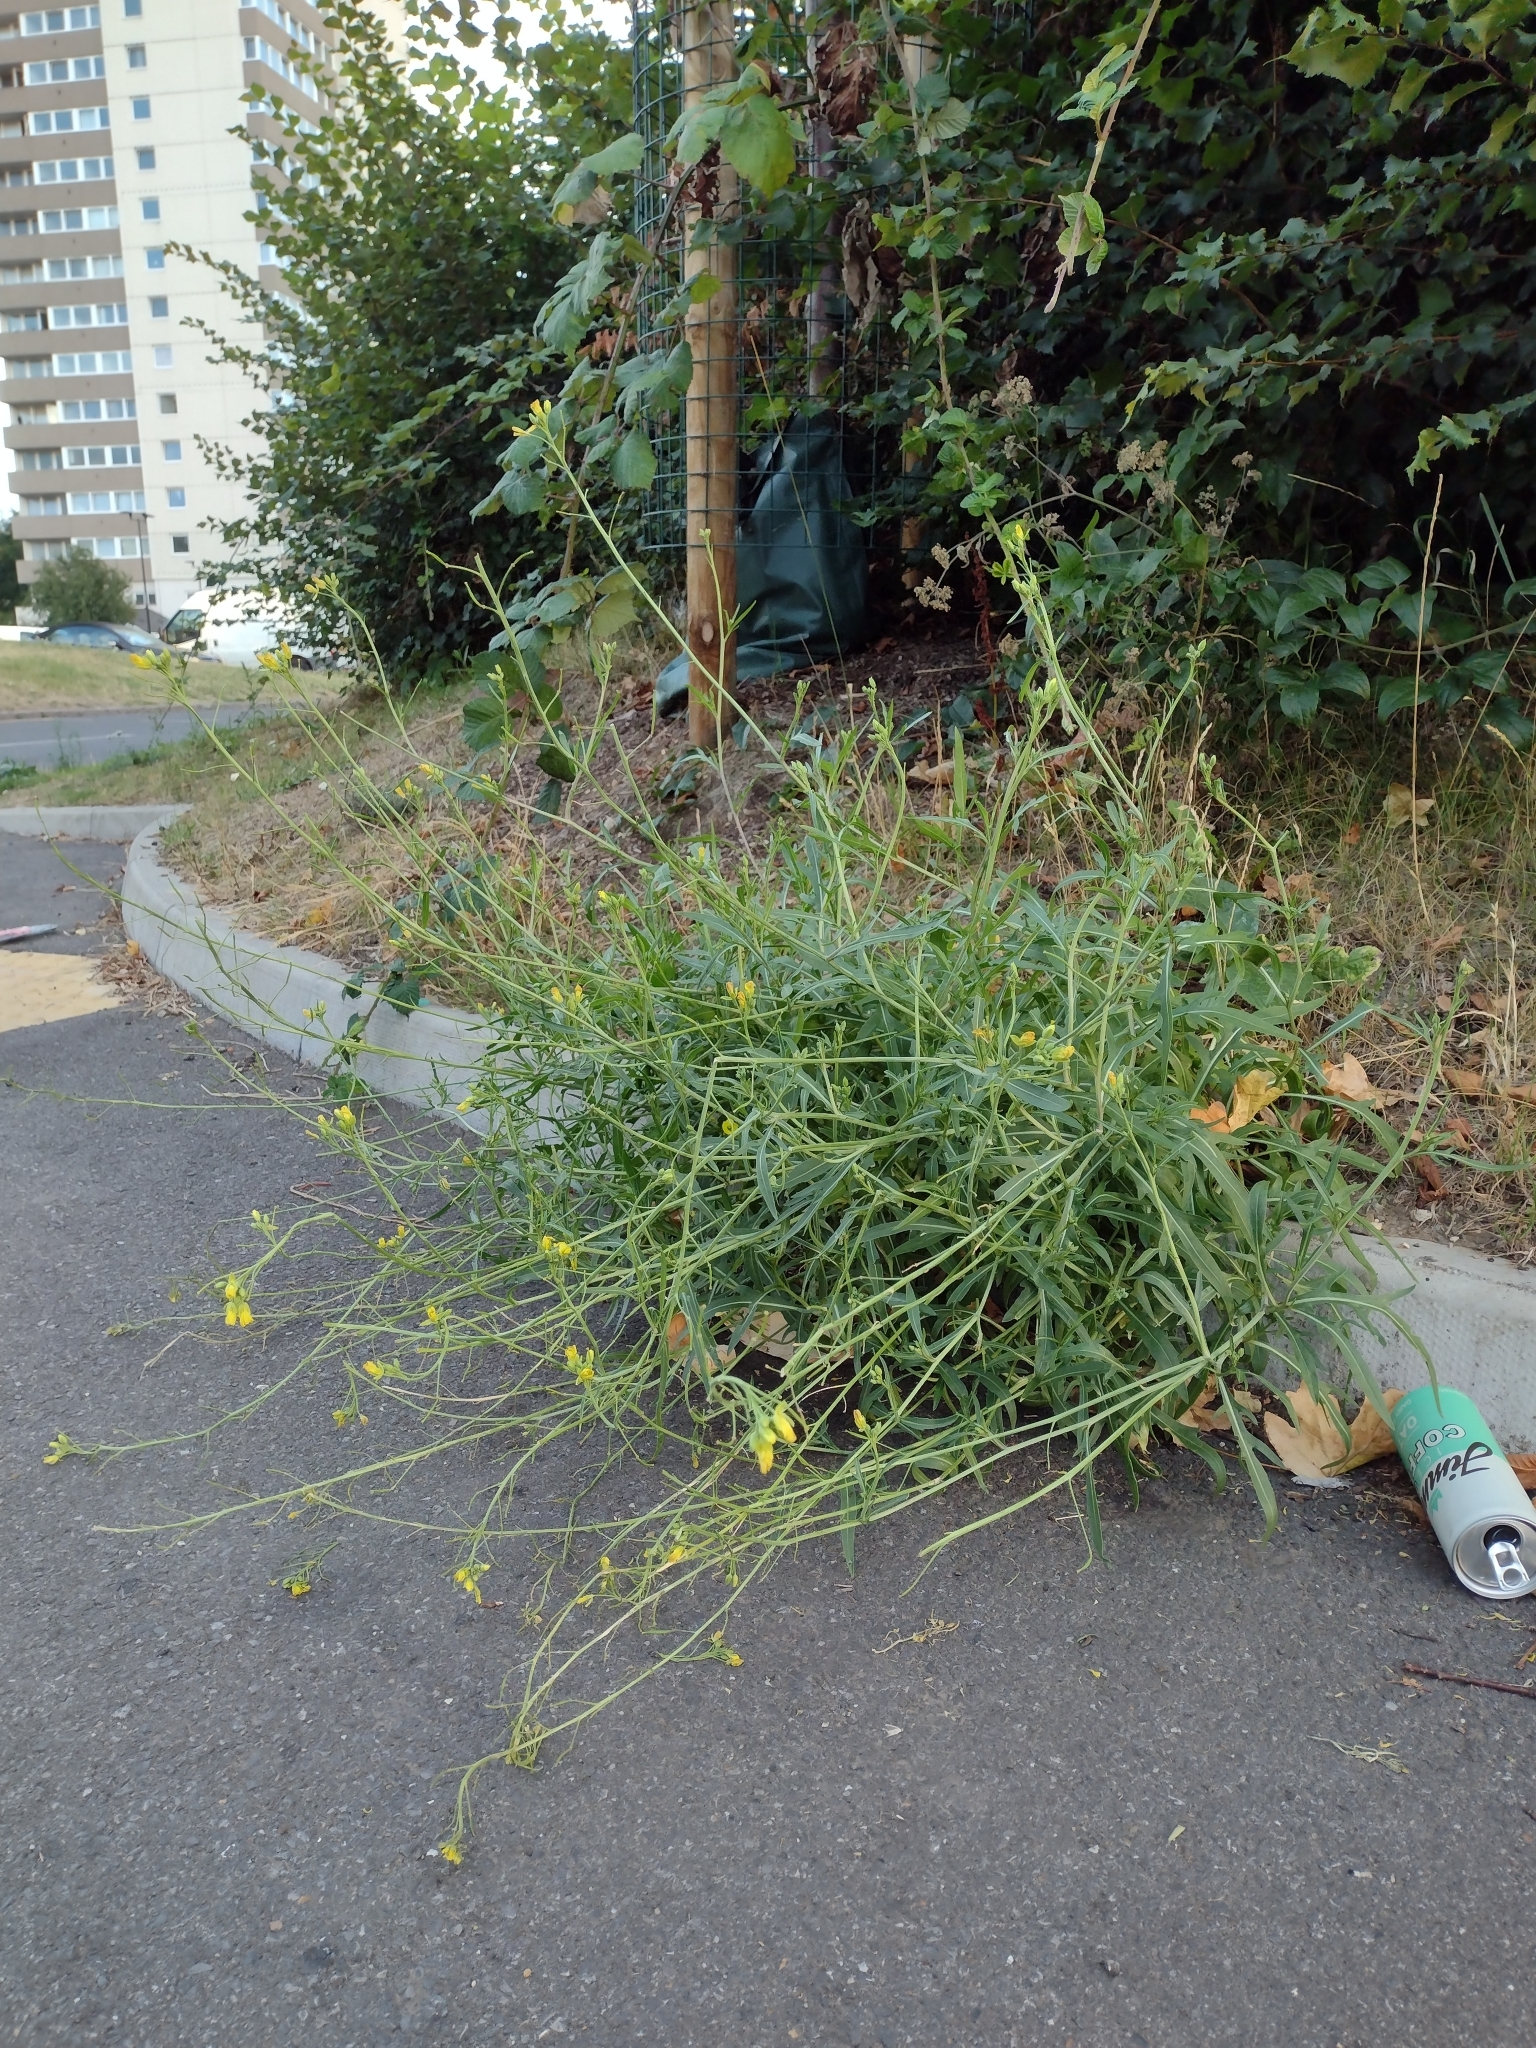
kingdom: Plantae
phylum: Tracheophyta
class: Magnoliopsida
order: Brassicales
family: Brassicaceae
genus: Diplotaxis
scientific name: Diplotaxis tenuifolia
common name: Perennial wall-rocket
